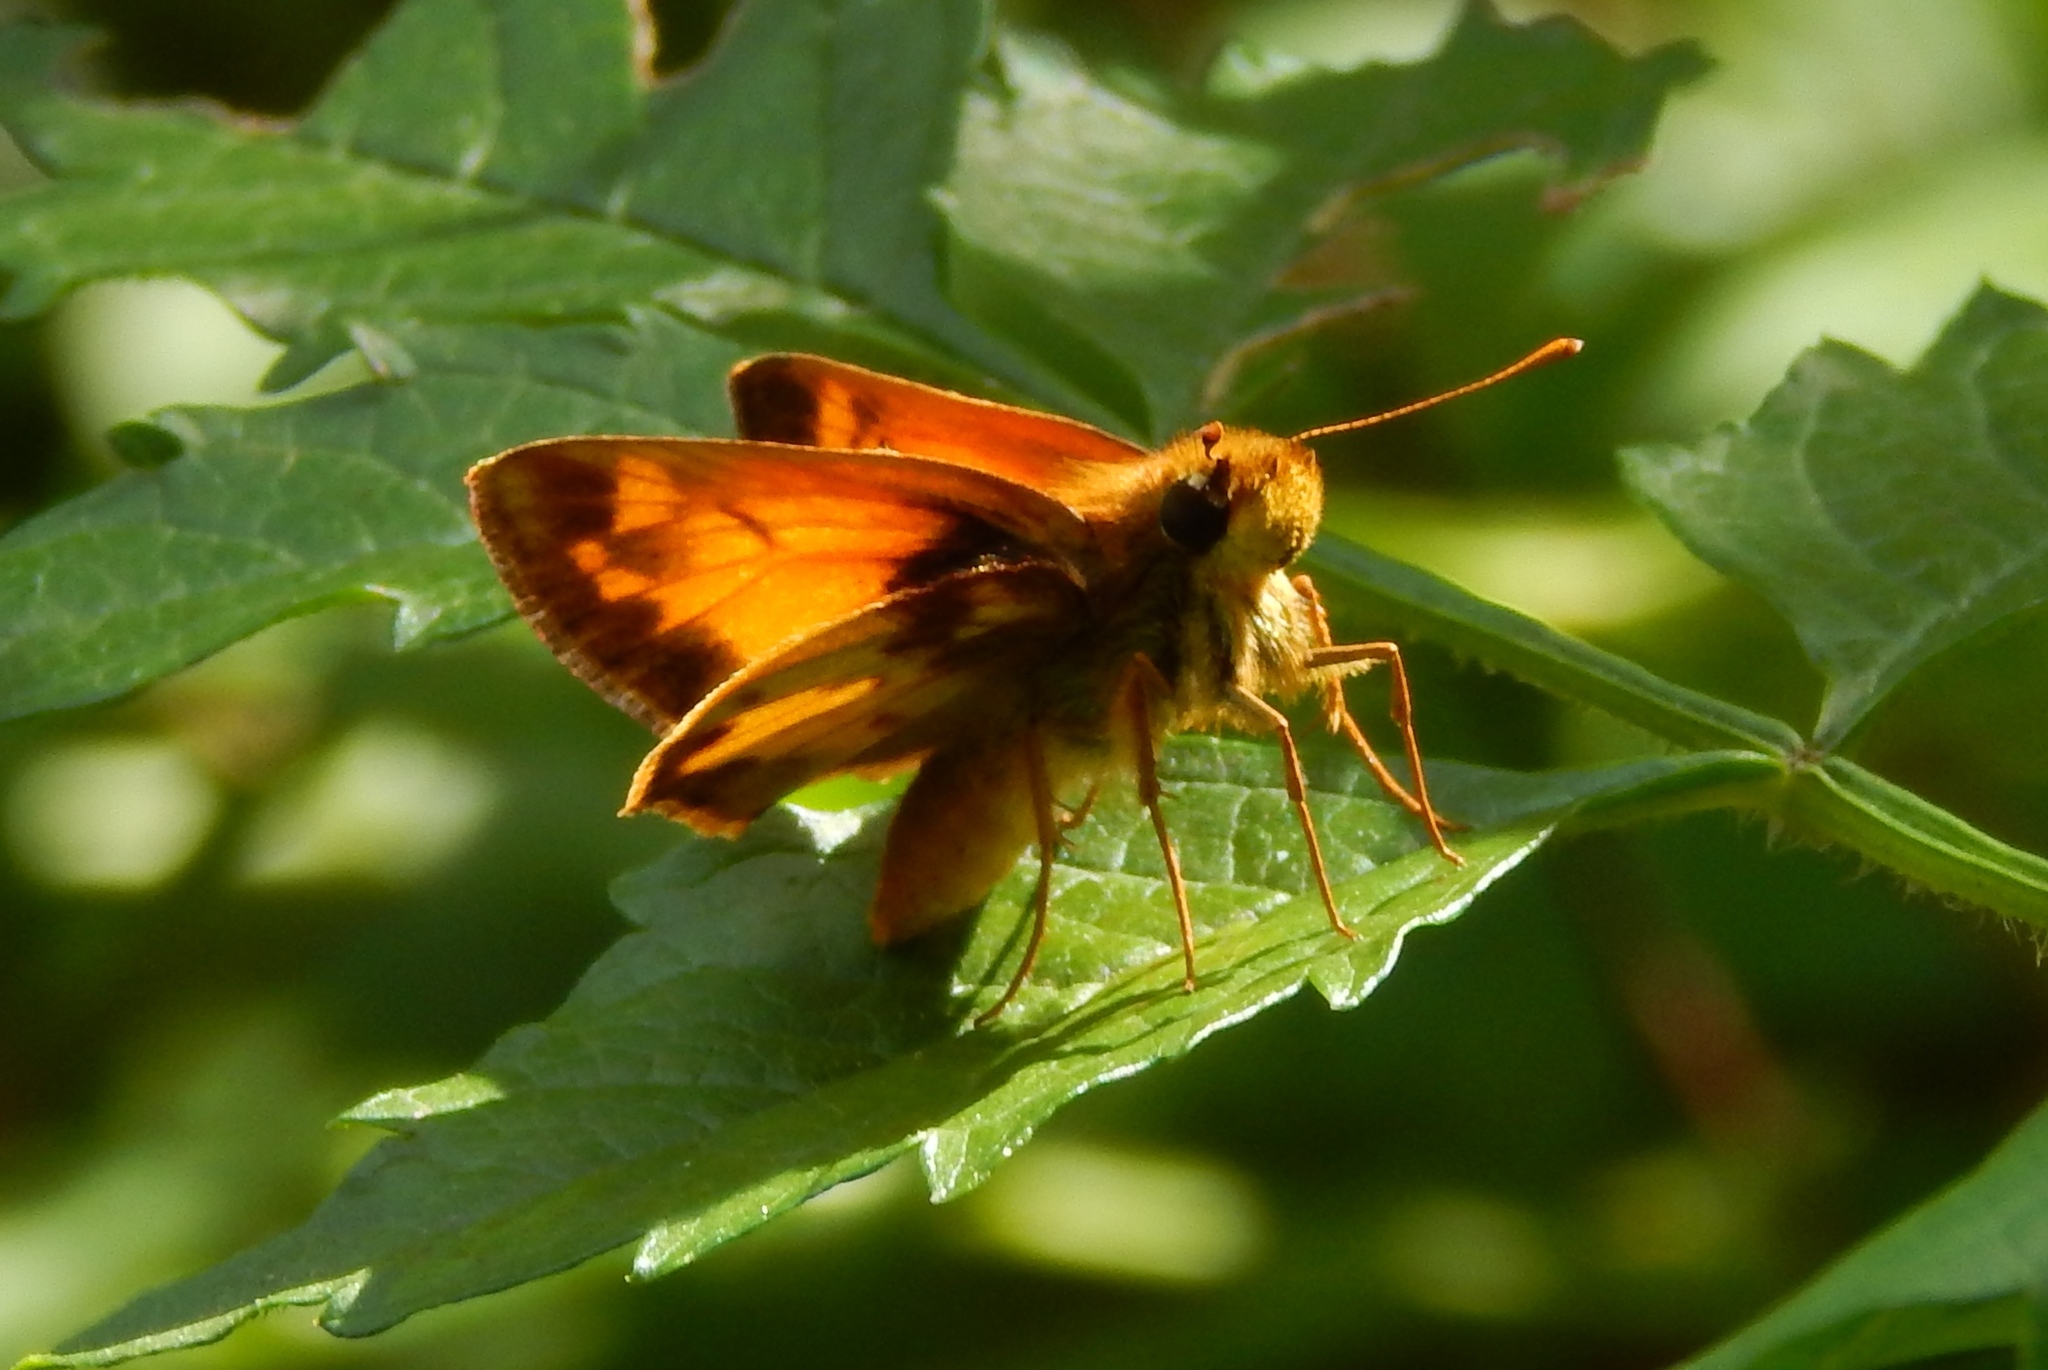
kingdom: Animalia
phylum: Arthropoda
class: Insecta
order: Lepidoptera
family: Hesperiidae
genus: Lon
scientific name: Lon zabulon
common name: Zabulon skipper
